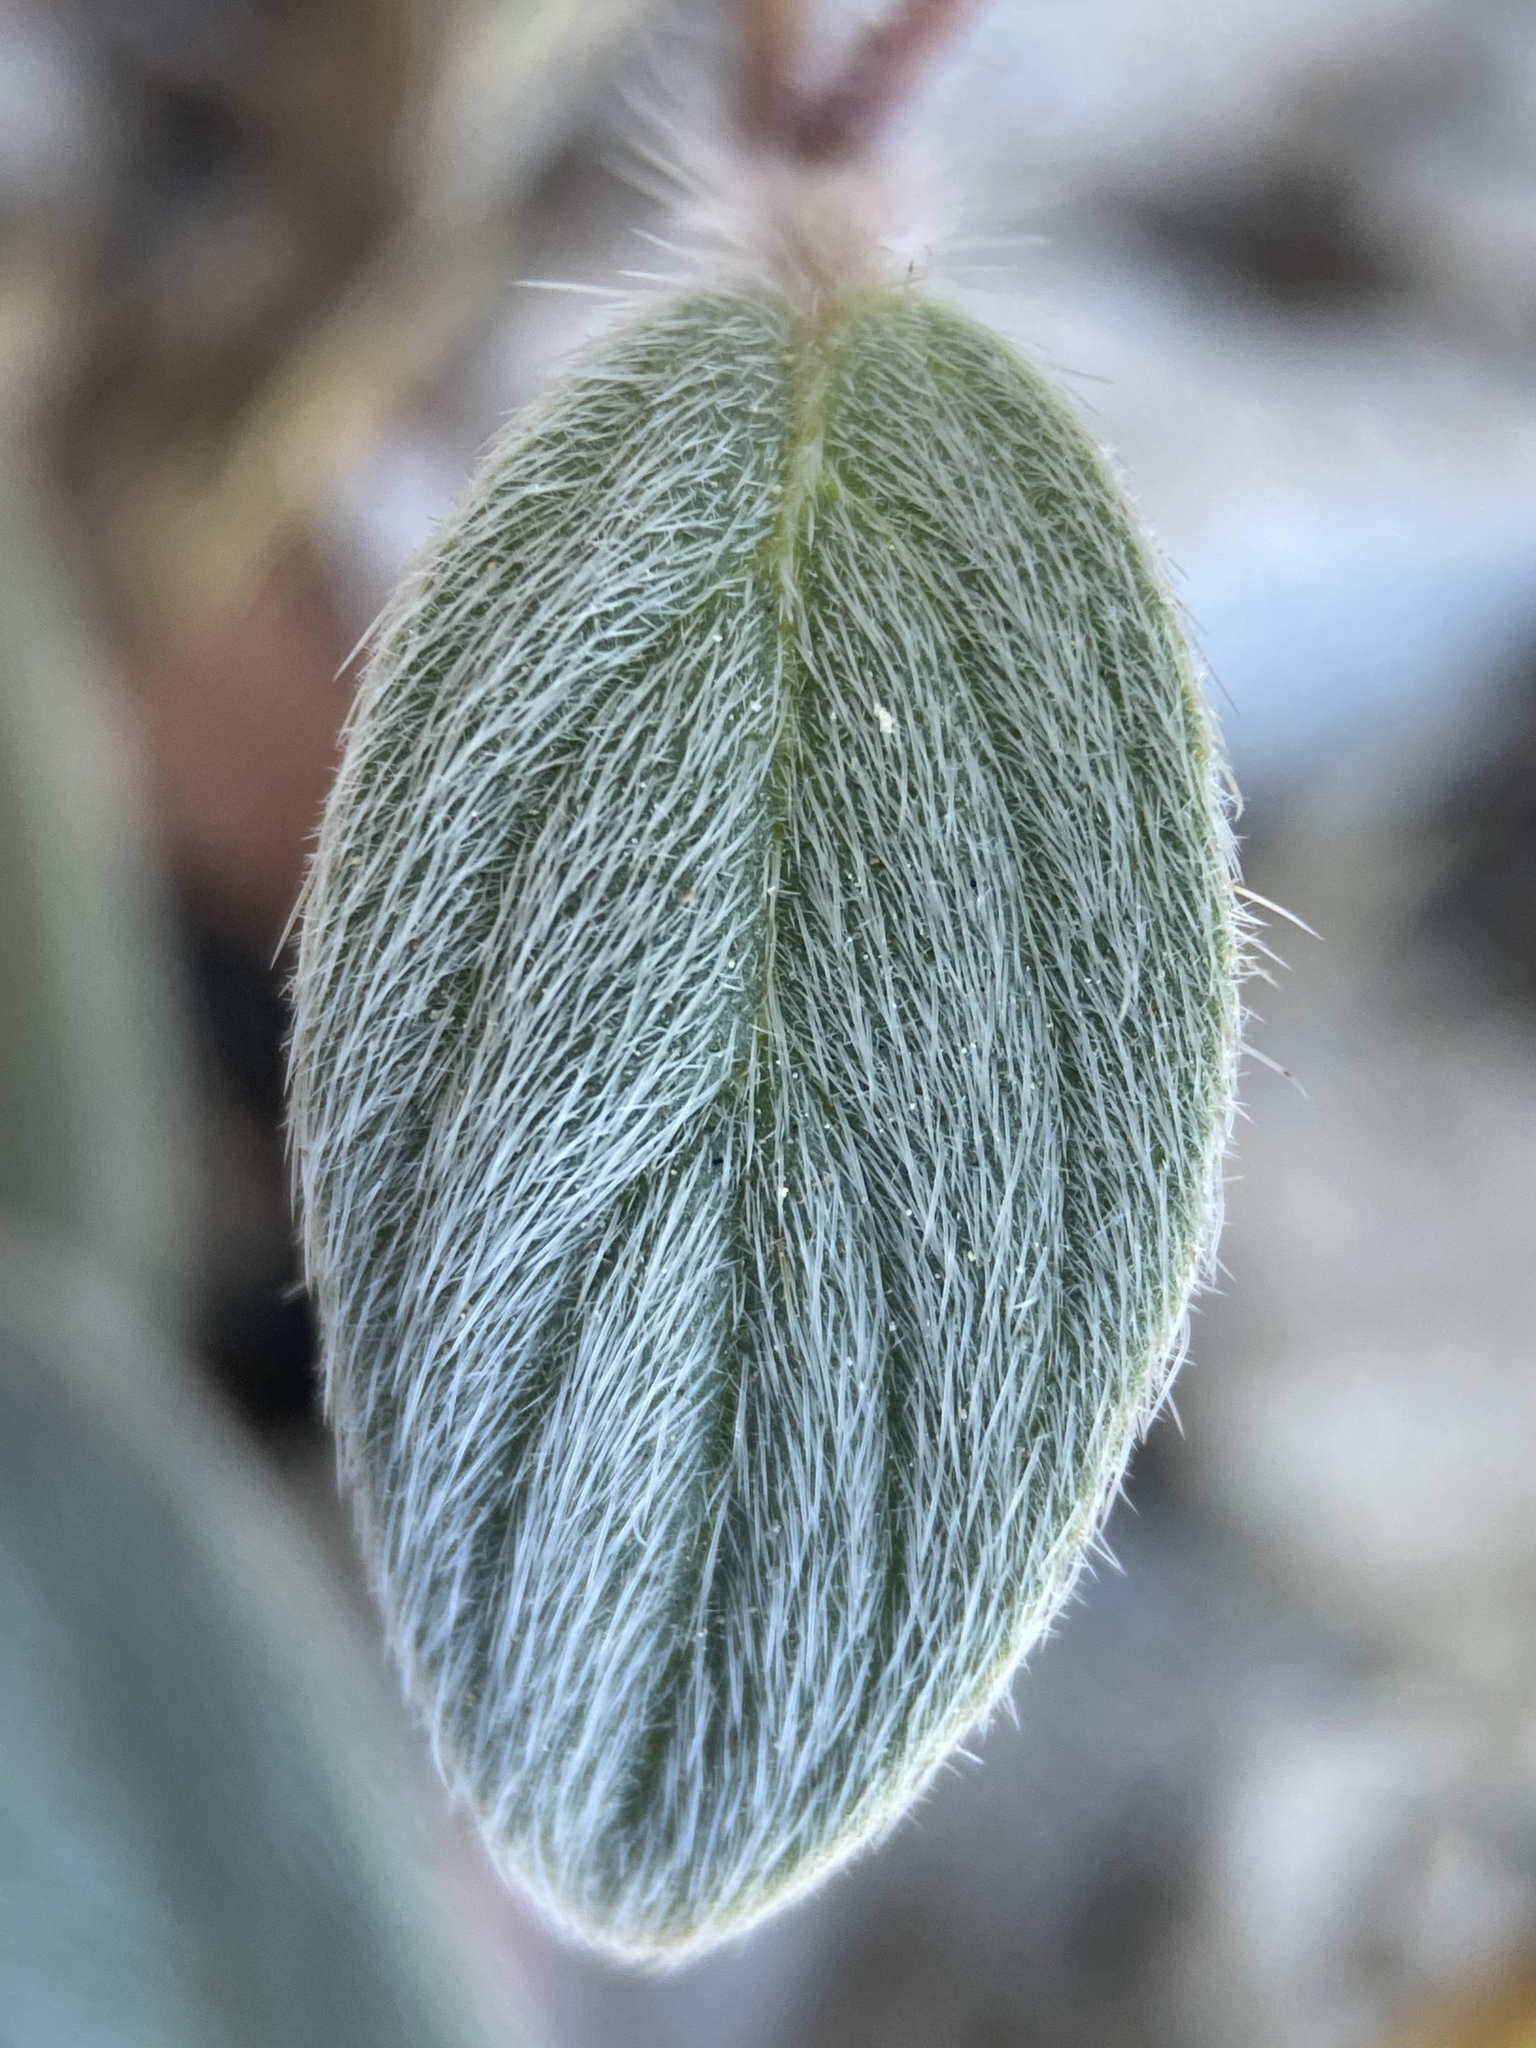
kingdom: Plantae
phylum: Tracheophyta
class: Magnoliopsida
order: Boraginales
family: Hydrophyllaceae
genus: Phacelia
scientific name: Phacelia hastata
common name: Silver-leaved phacelia
